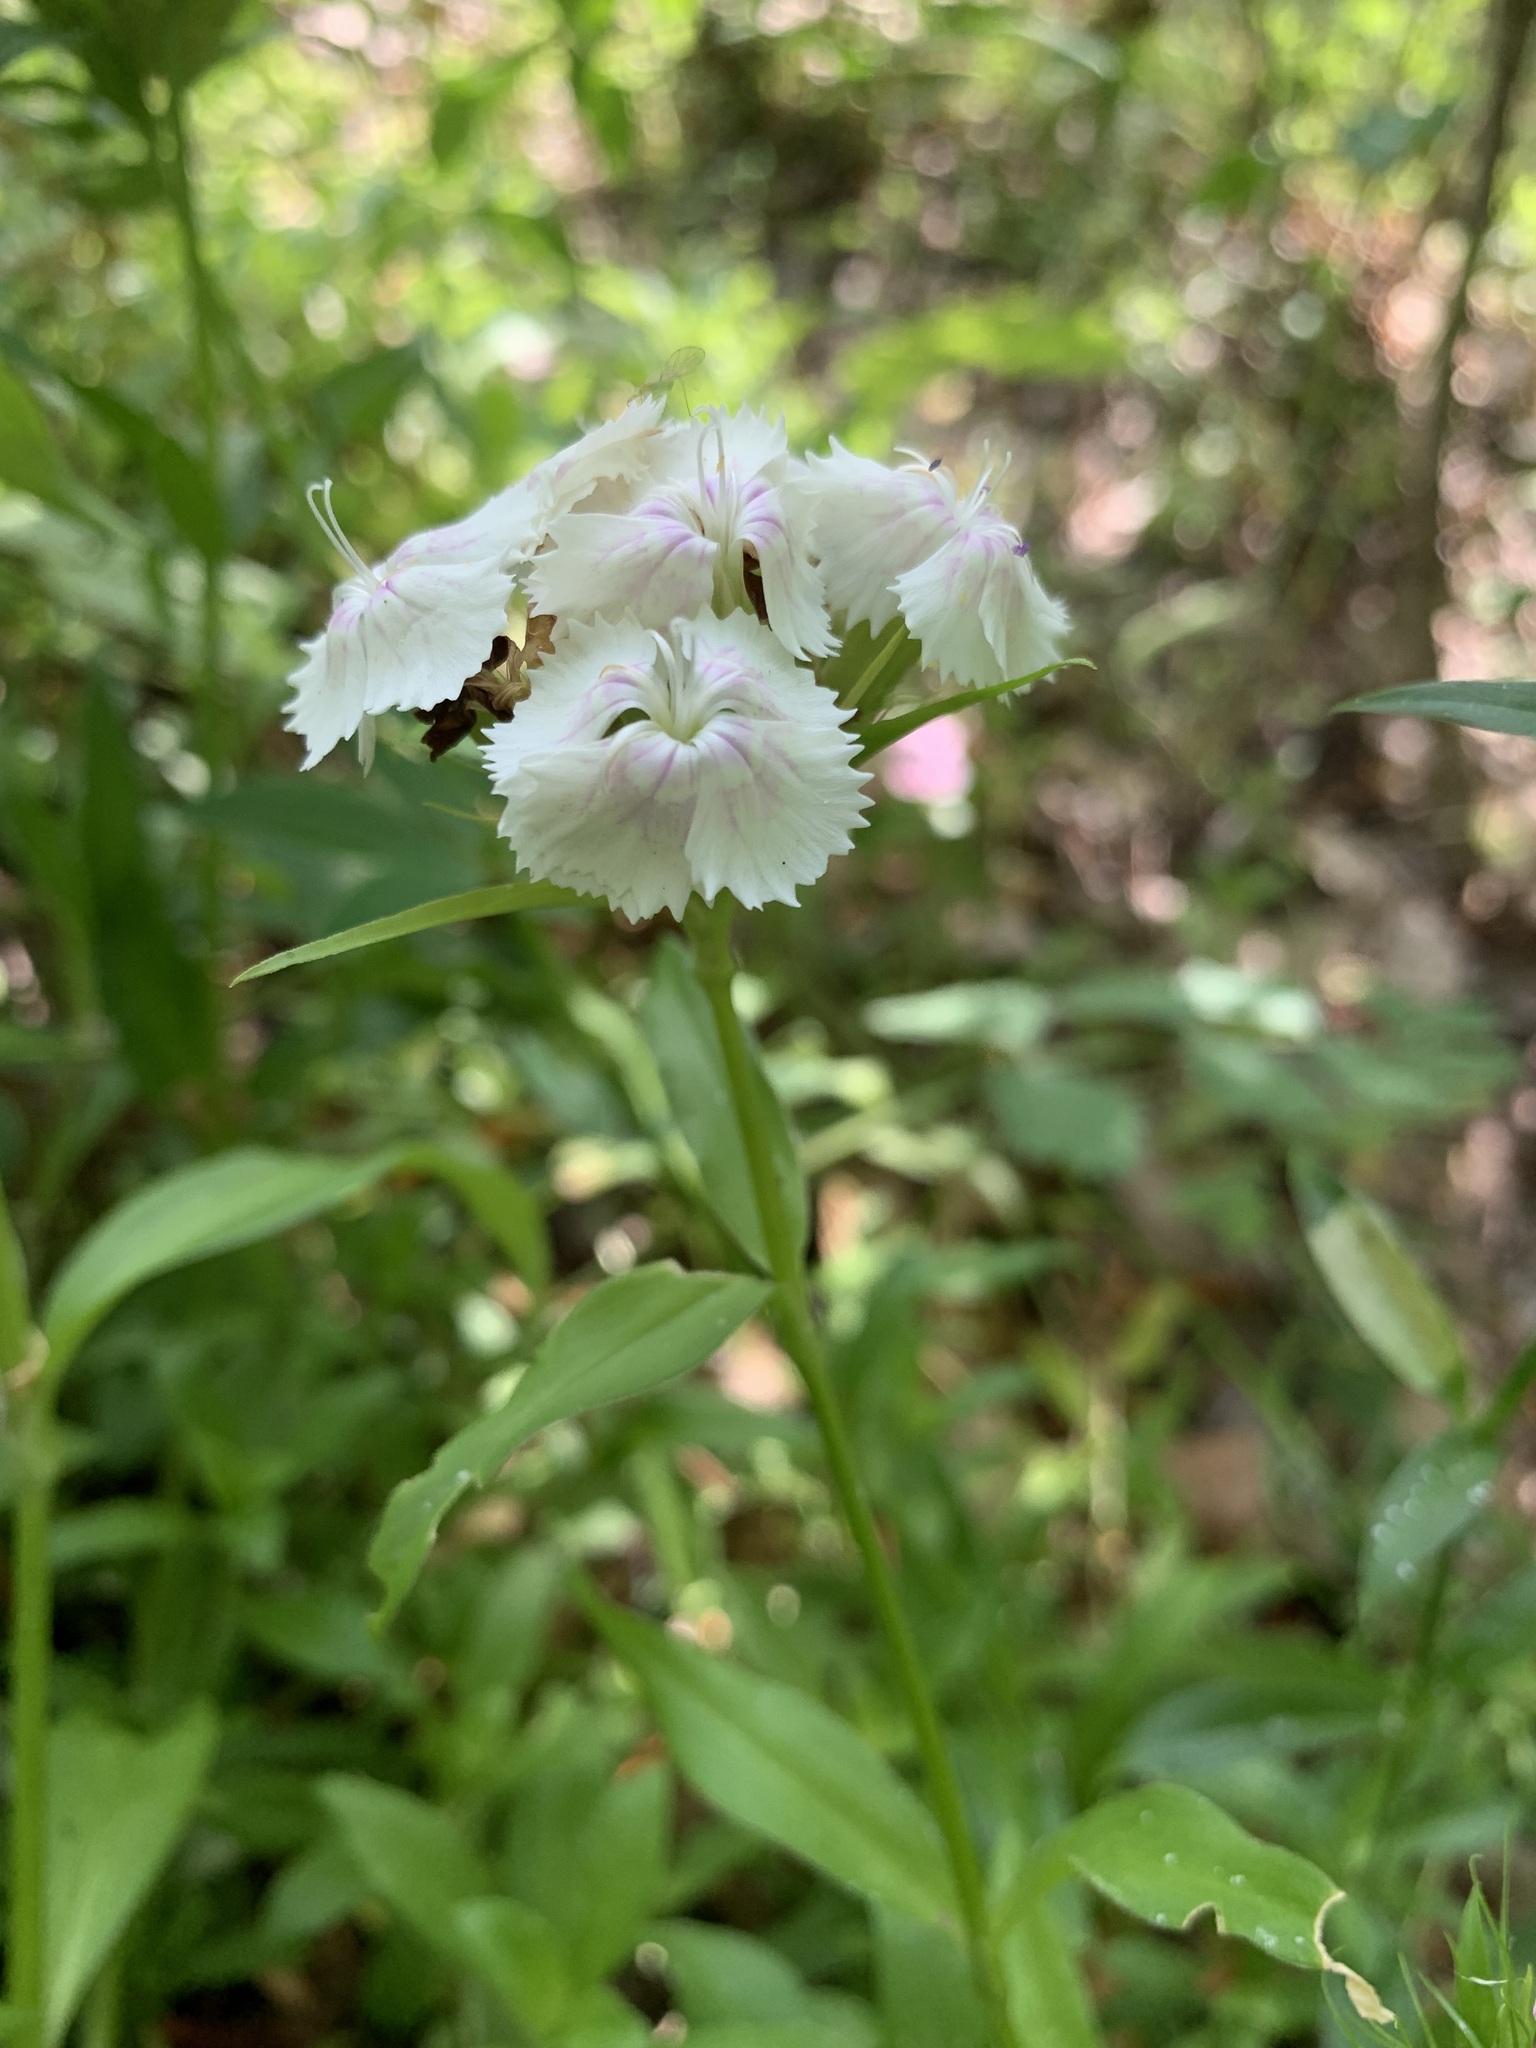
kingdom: Plantae
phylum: Tracheophyta
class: Magnoliopsida
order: Caryophyllales
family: Caryophyllaceae
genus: Dianthus
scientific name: Dianthus barbatus
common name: Sweet-william
